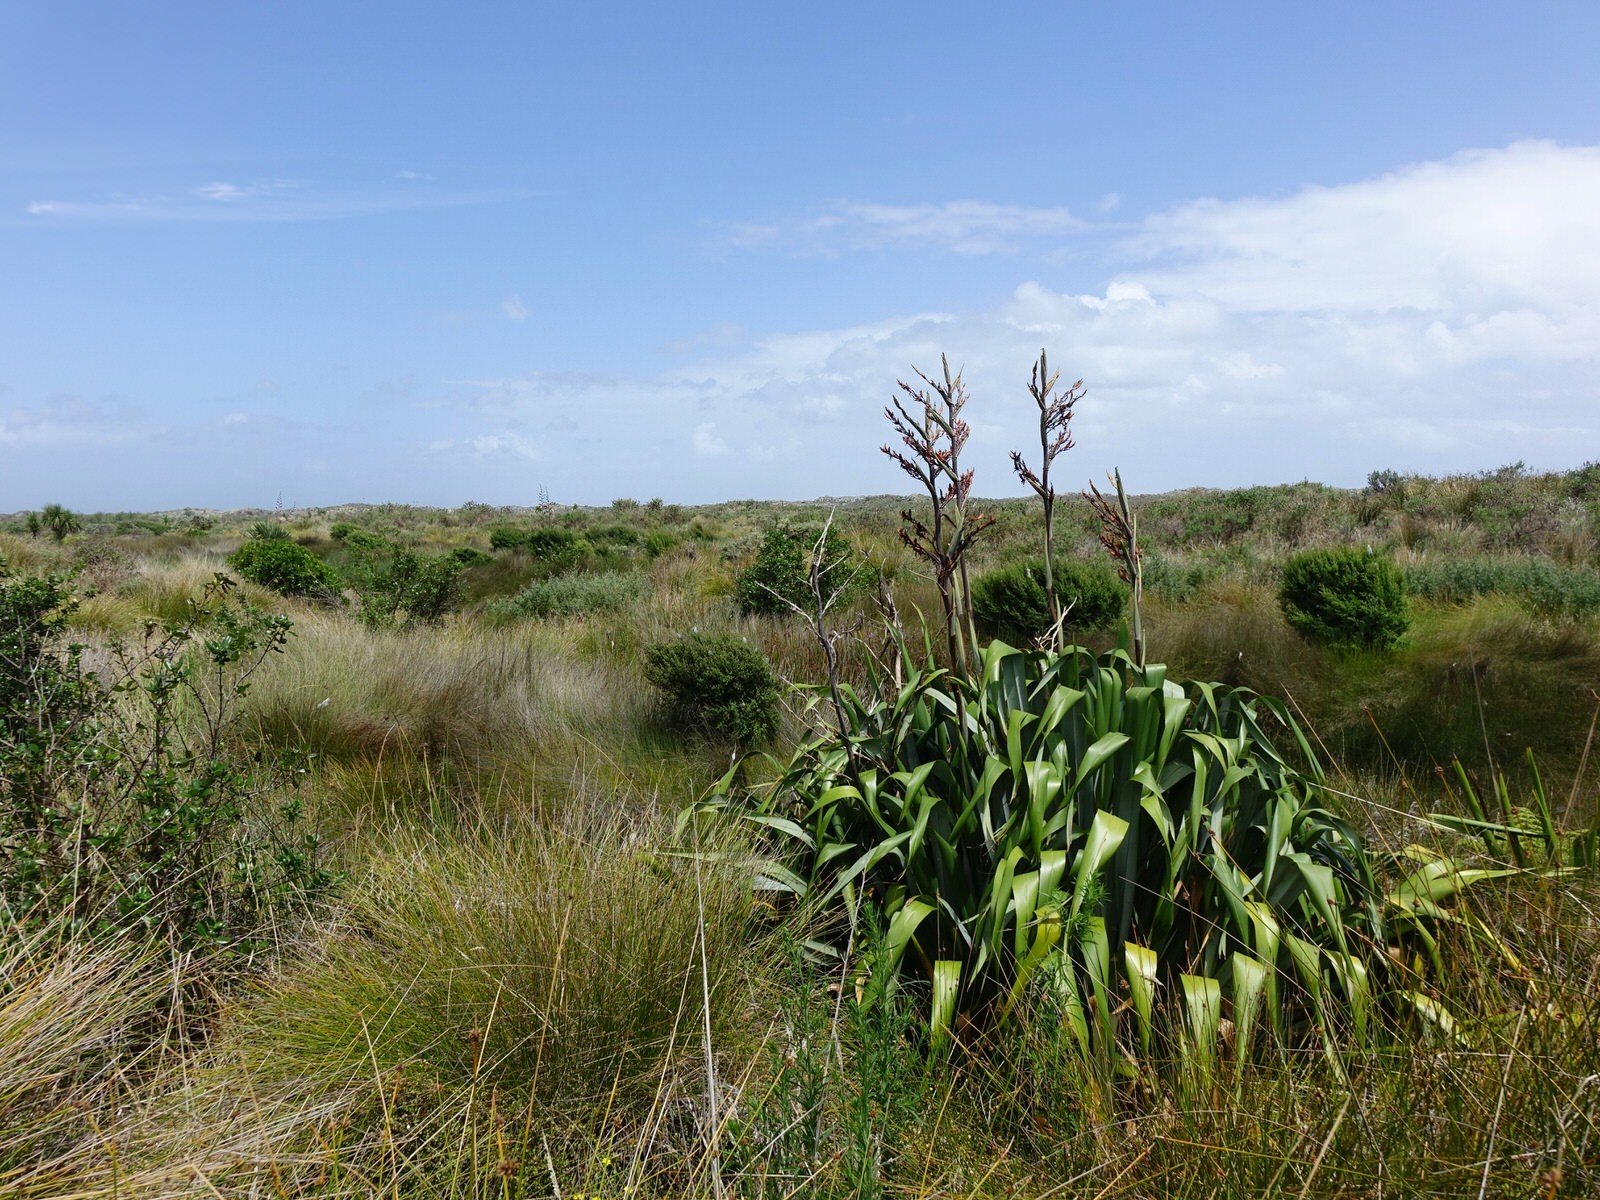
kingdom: Plantae
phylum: Tracheophyta
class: Liliopsida
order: Asparagales
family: Asphodelaceae
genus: Phormium
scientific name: Phormium tenax
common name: New zealand flax
